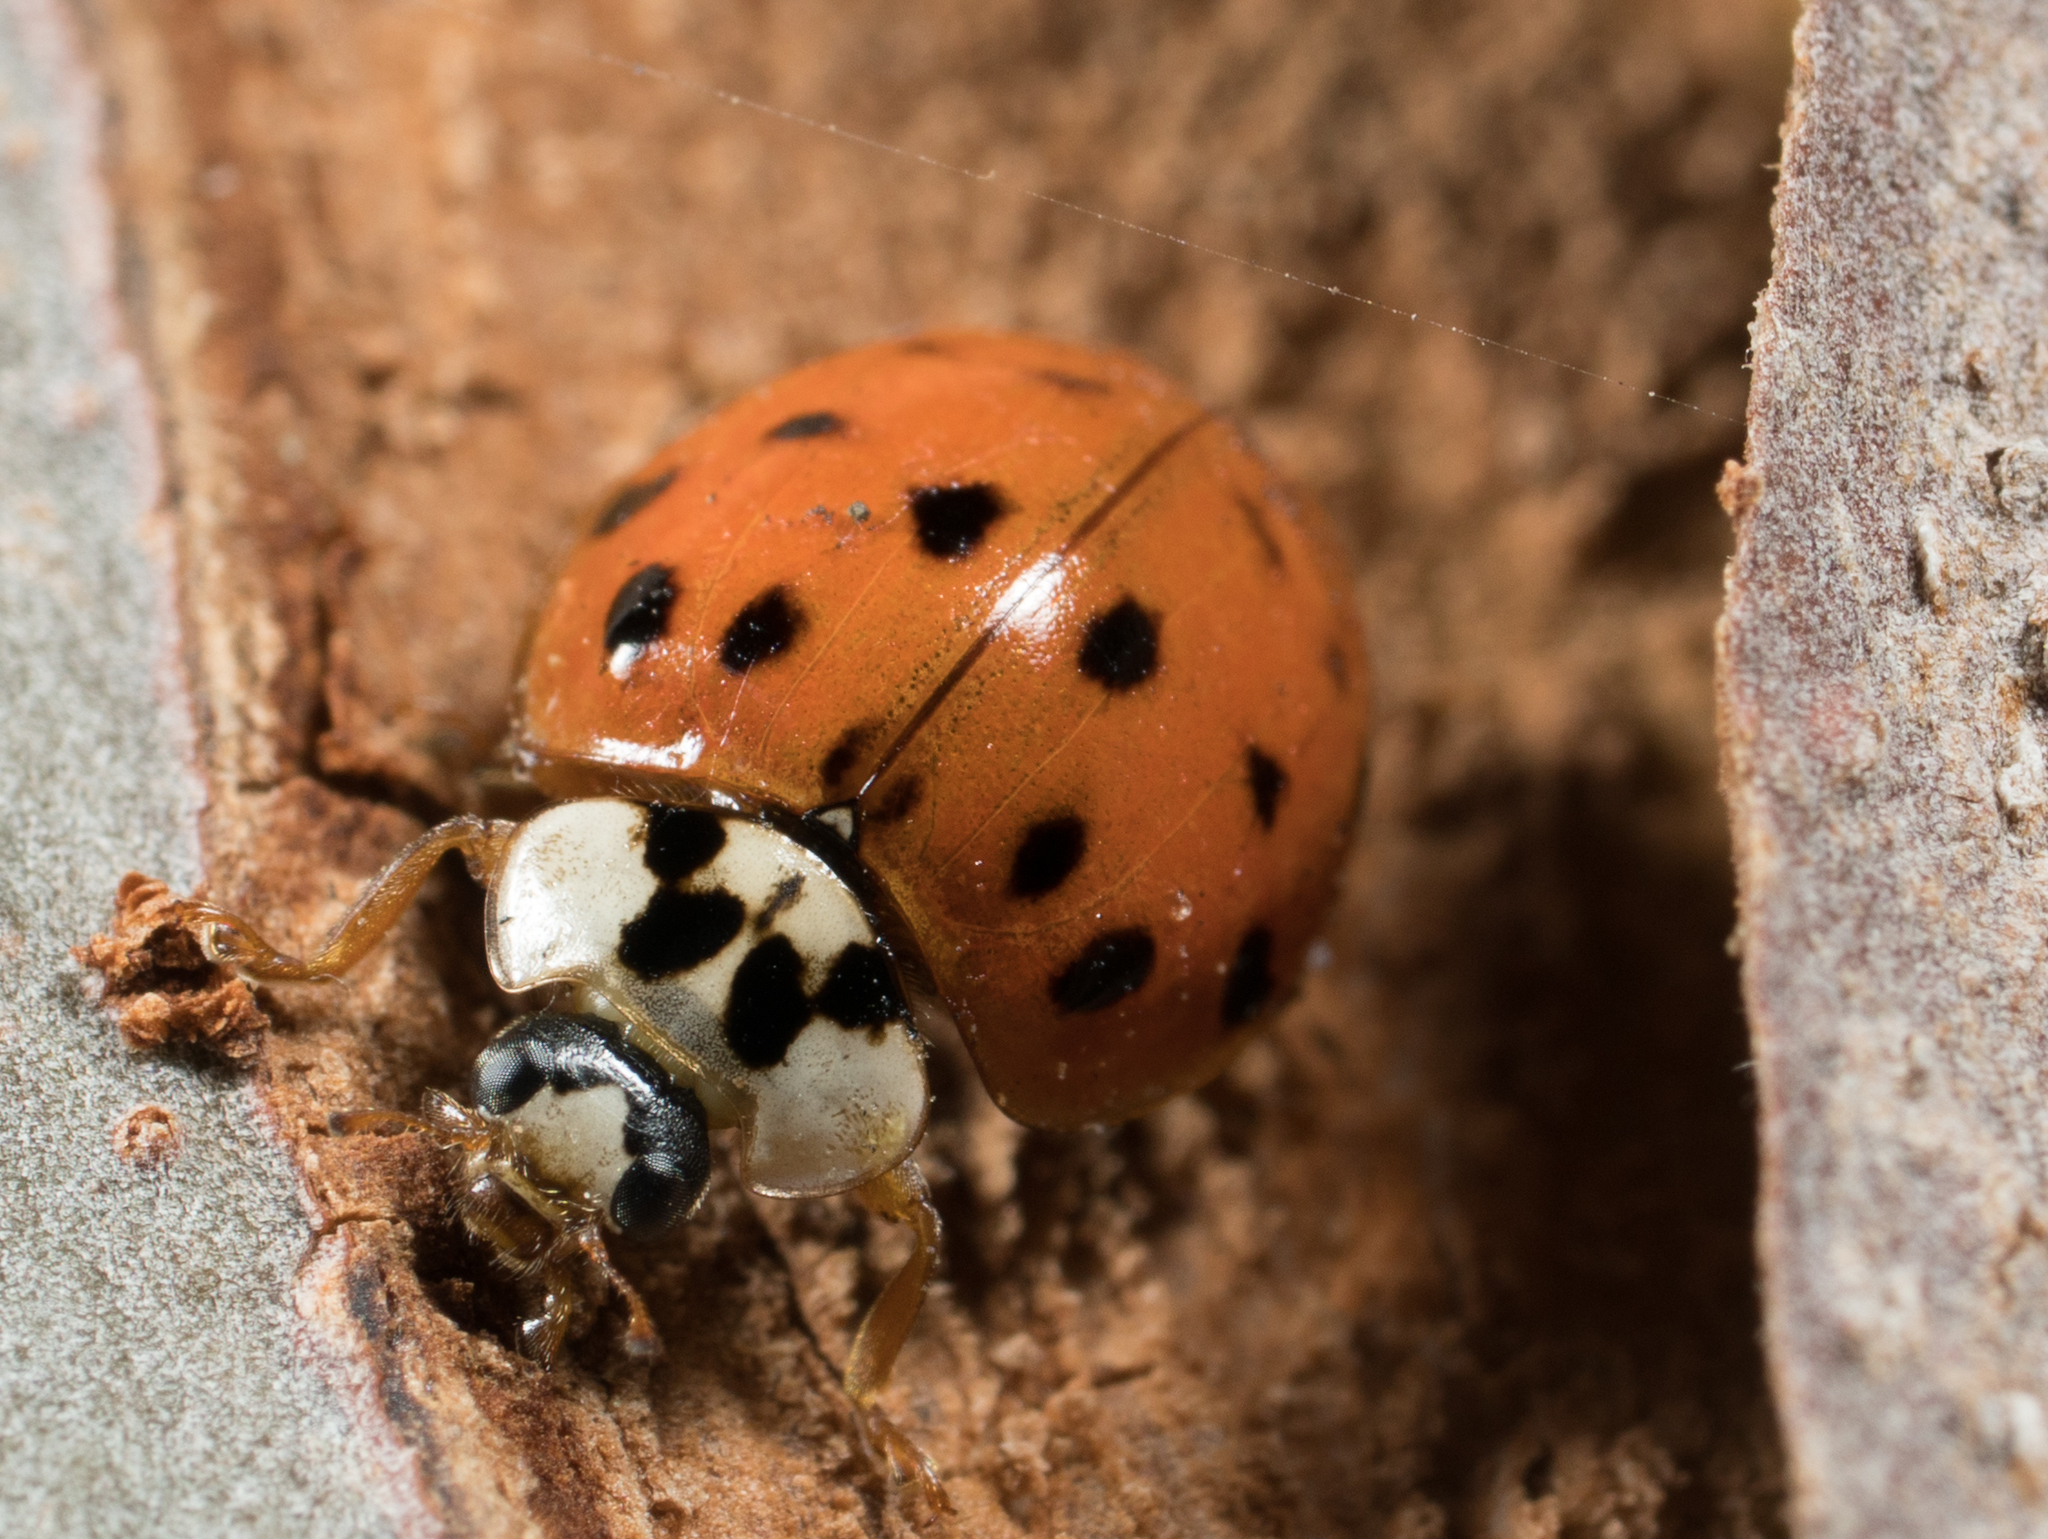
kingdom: Animalia
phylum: Arthropoda
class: Insecta
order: Coleoptera
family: Coccinellidae
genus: Harmonia
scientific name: Harmonia axyridis
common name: Harlequin ladybird
